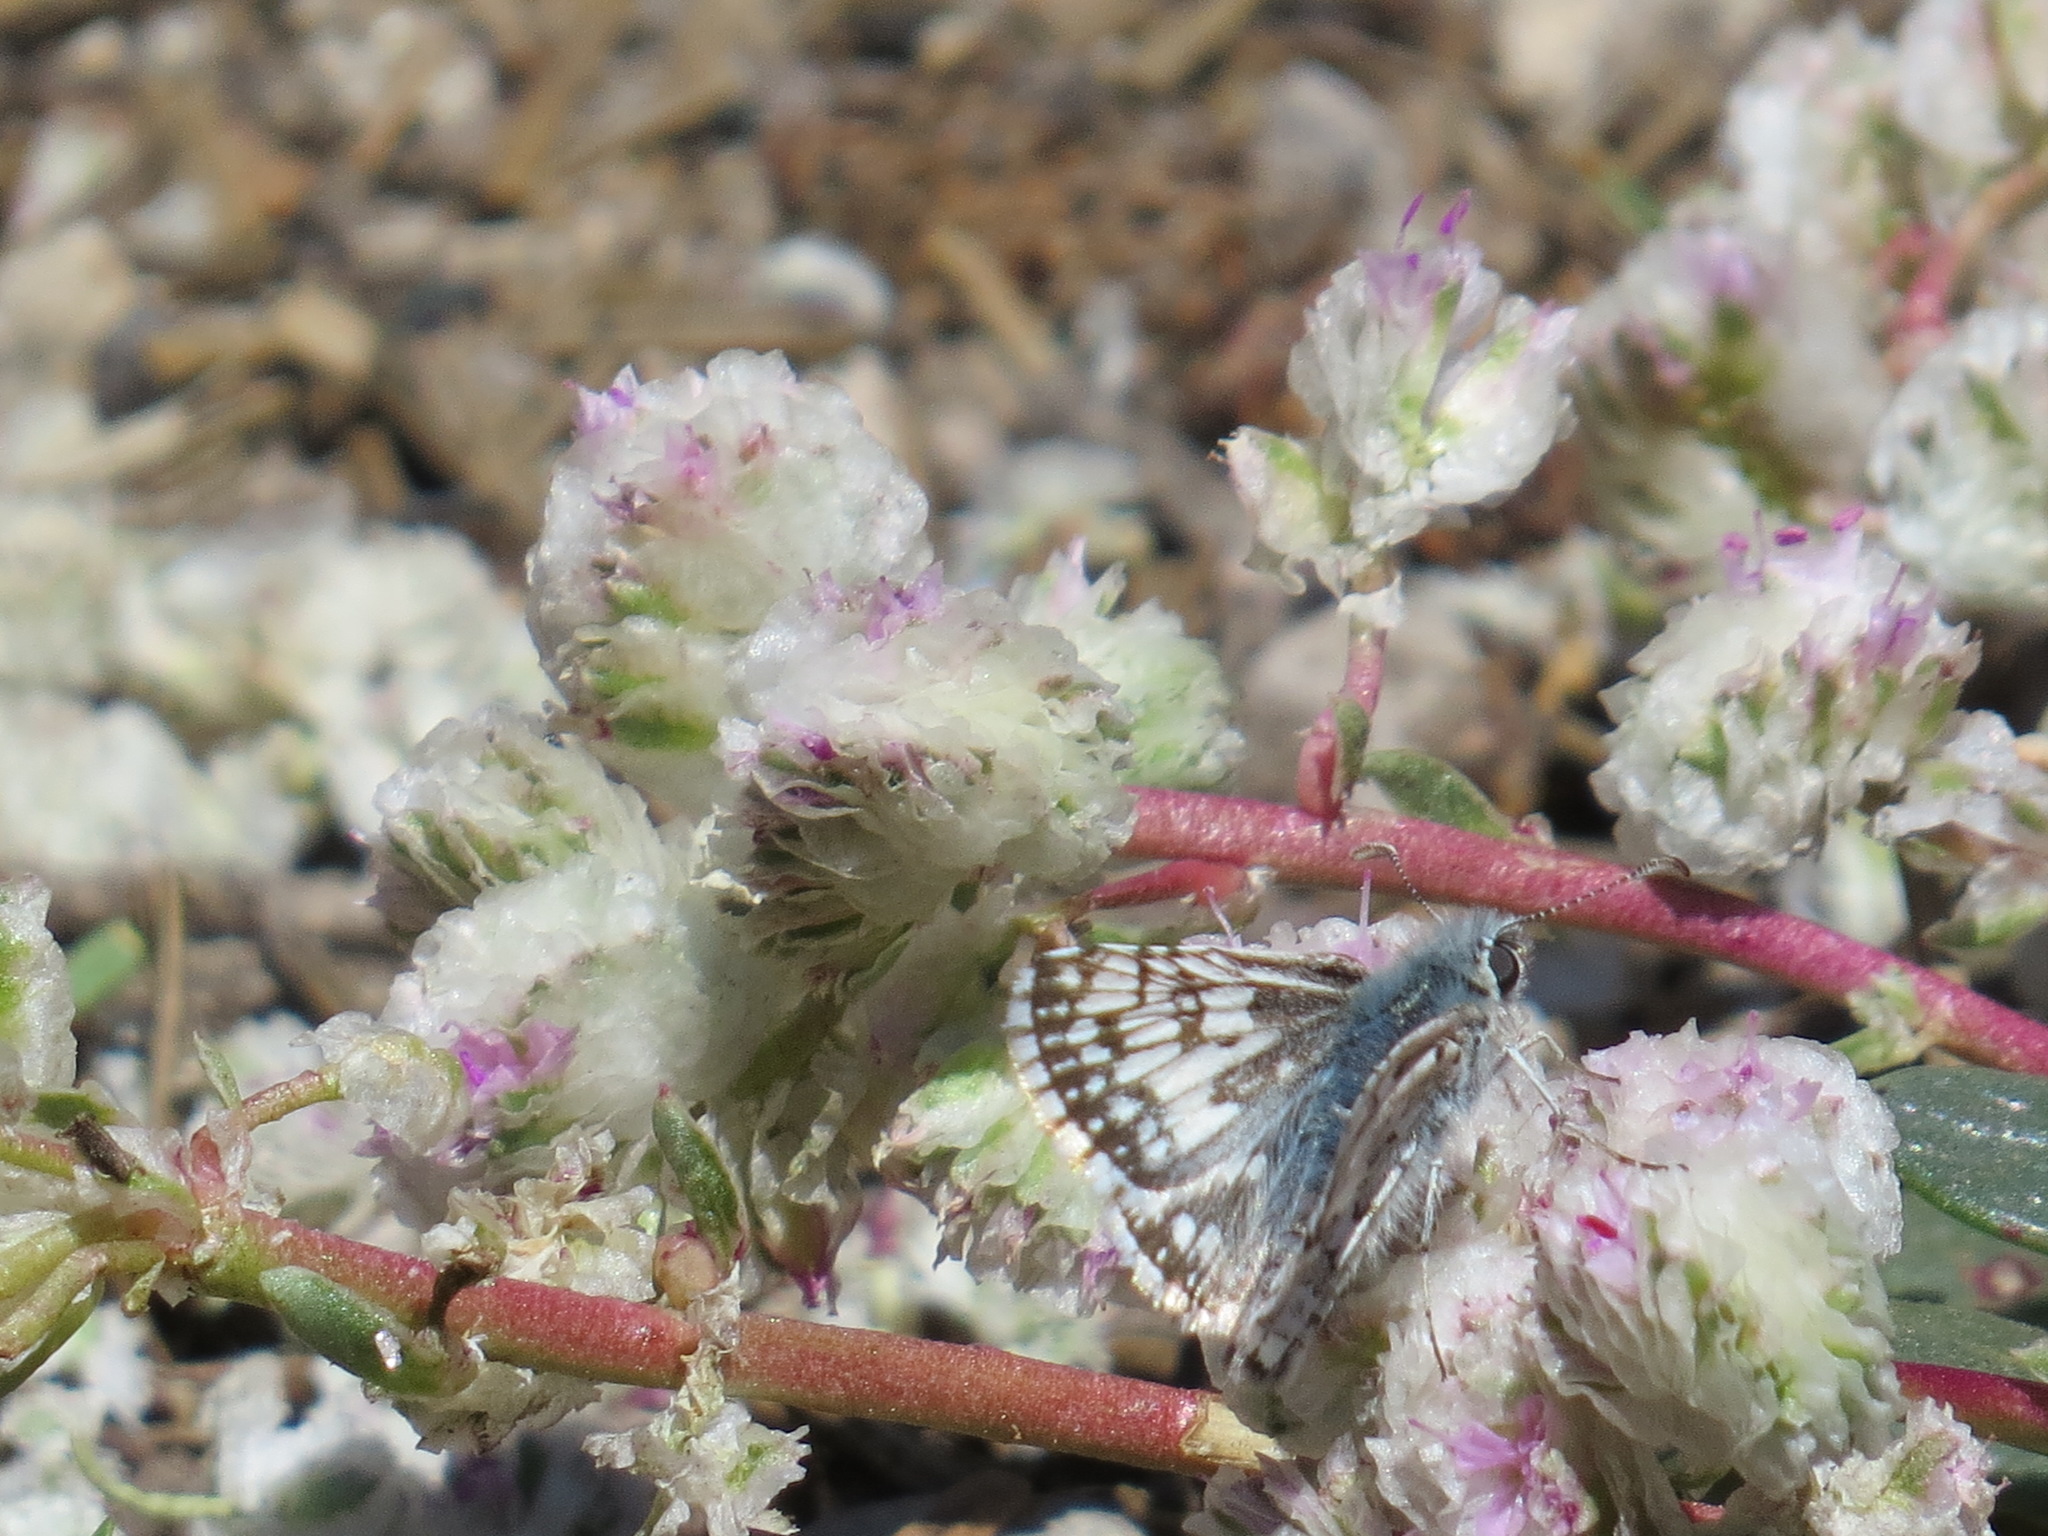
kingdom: Animalia
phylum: Arthropoda
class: Insecta
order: Lepidoptera
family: Hesperiidae
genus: Burnsius
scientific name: Burnsius communis
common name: Common checkered-skipper
